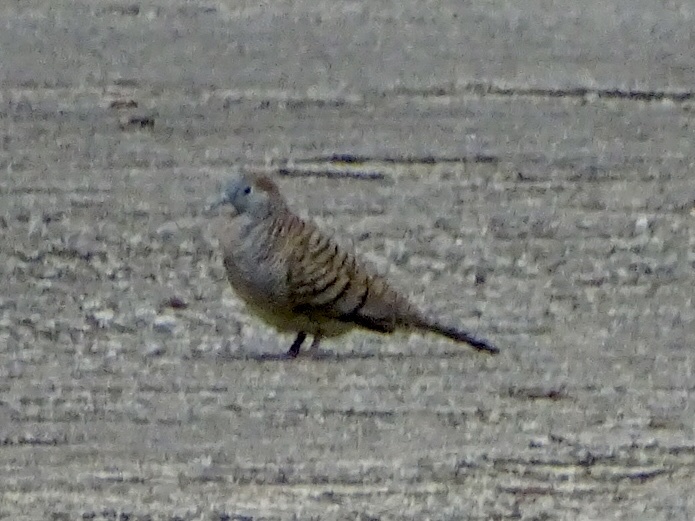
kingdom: Animalia
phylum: Chordata
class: Aves
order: Columbiformes
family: Columbidae
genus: Geopelia
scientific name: Geopelia striata
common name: Zebra dove
